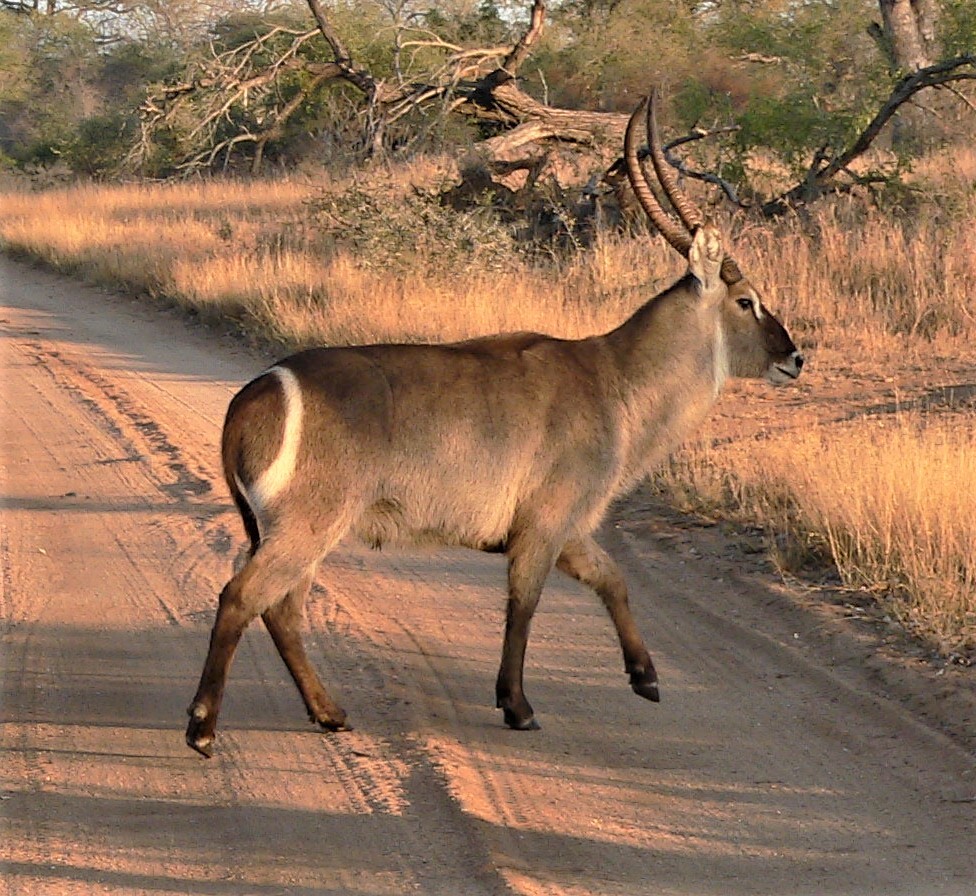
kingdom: Animalia
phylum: Chordata
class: Mammalia
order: Artiodactyla
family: Bovidae
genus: Kobus
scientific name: Kobus ellipsiprymnus
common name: Waterbuck
